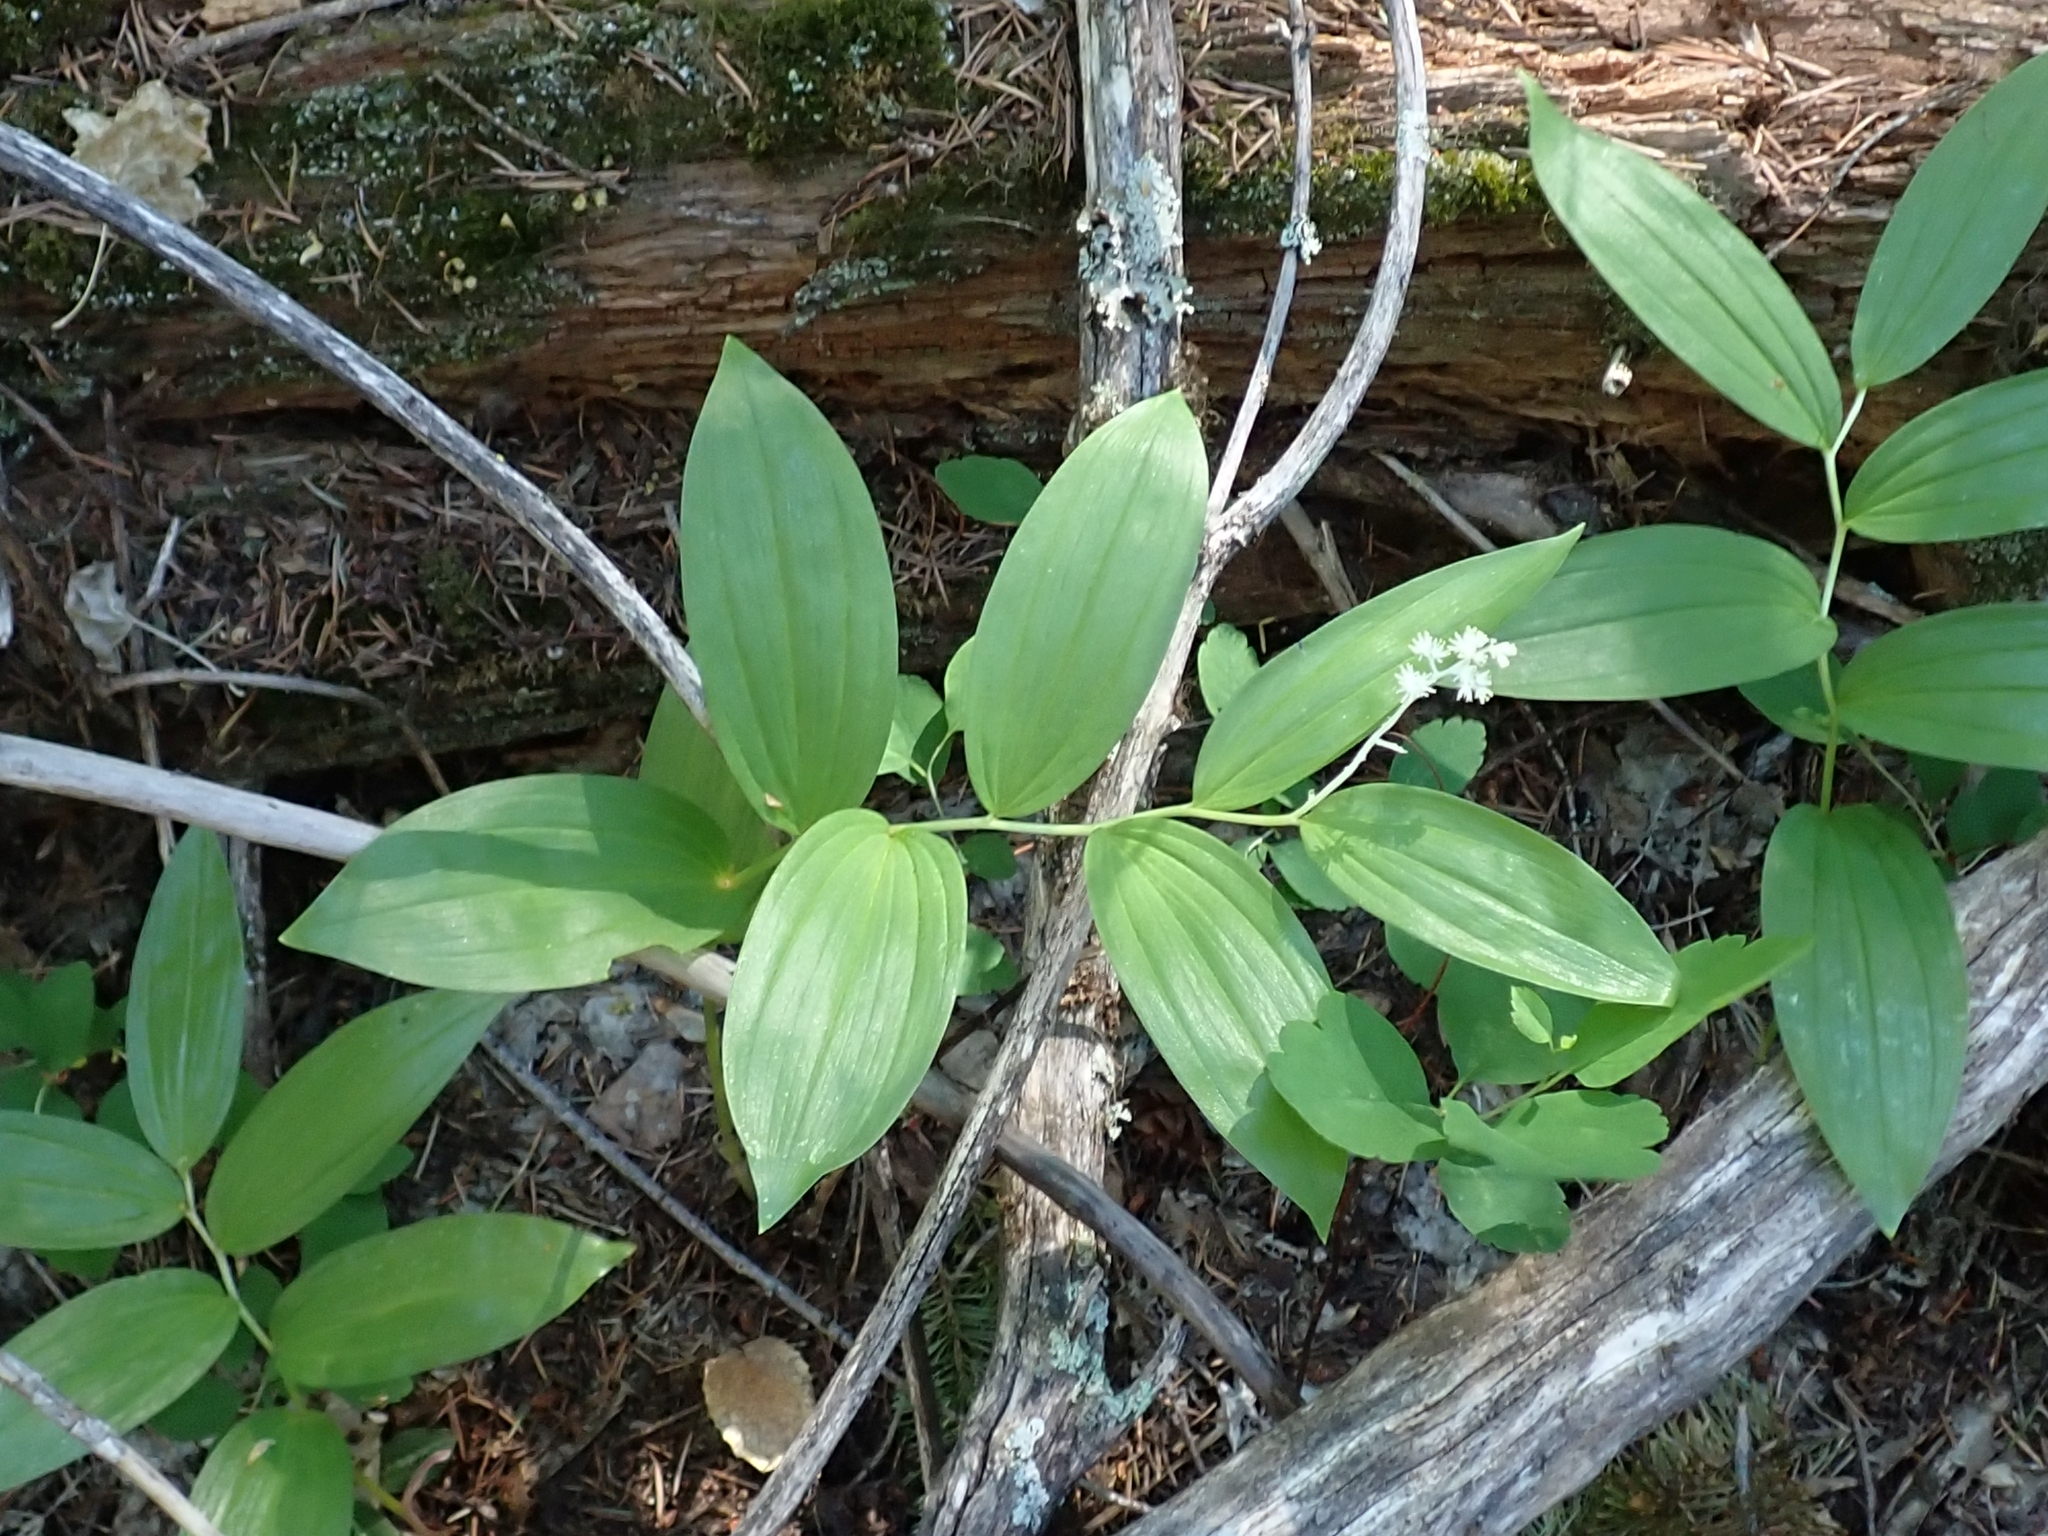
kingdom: Plantae
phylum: Tracheophyta
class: Liliopsida
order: Asparagales
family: Asparagaceae
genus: Maianthemum
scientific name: Maianthemum racemosum
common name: False spikenard
